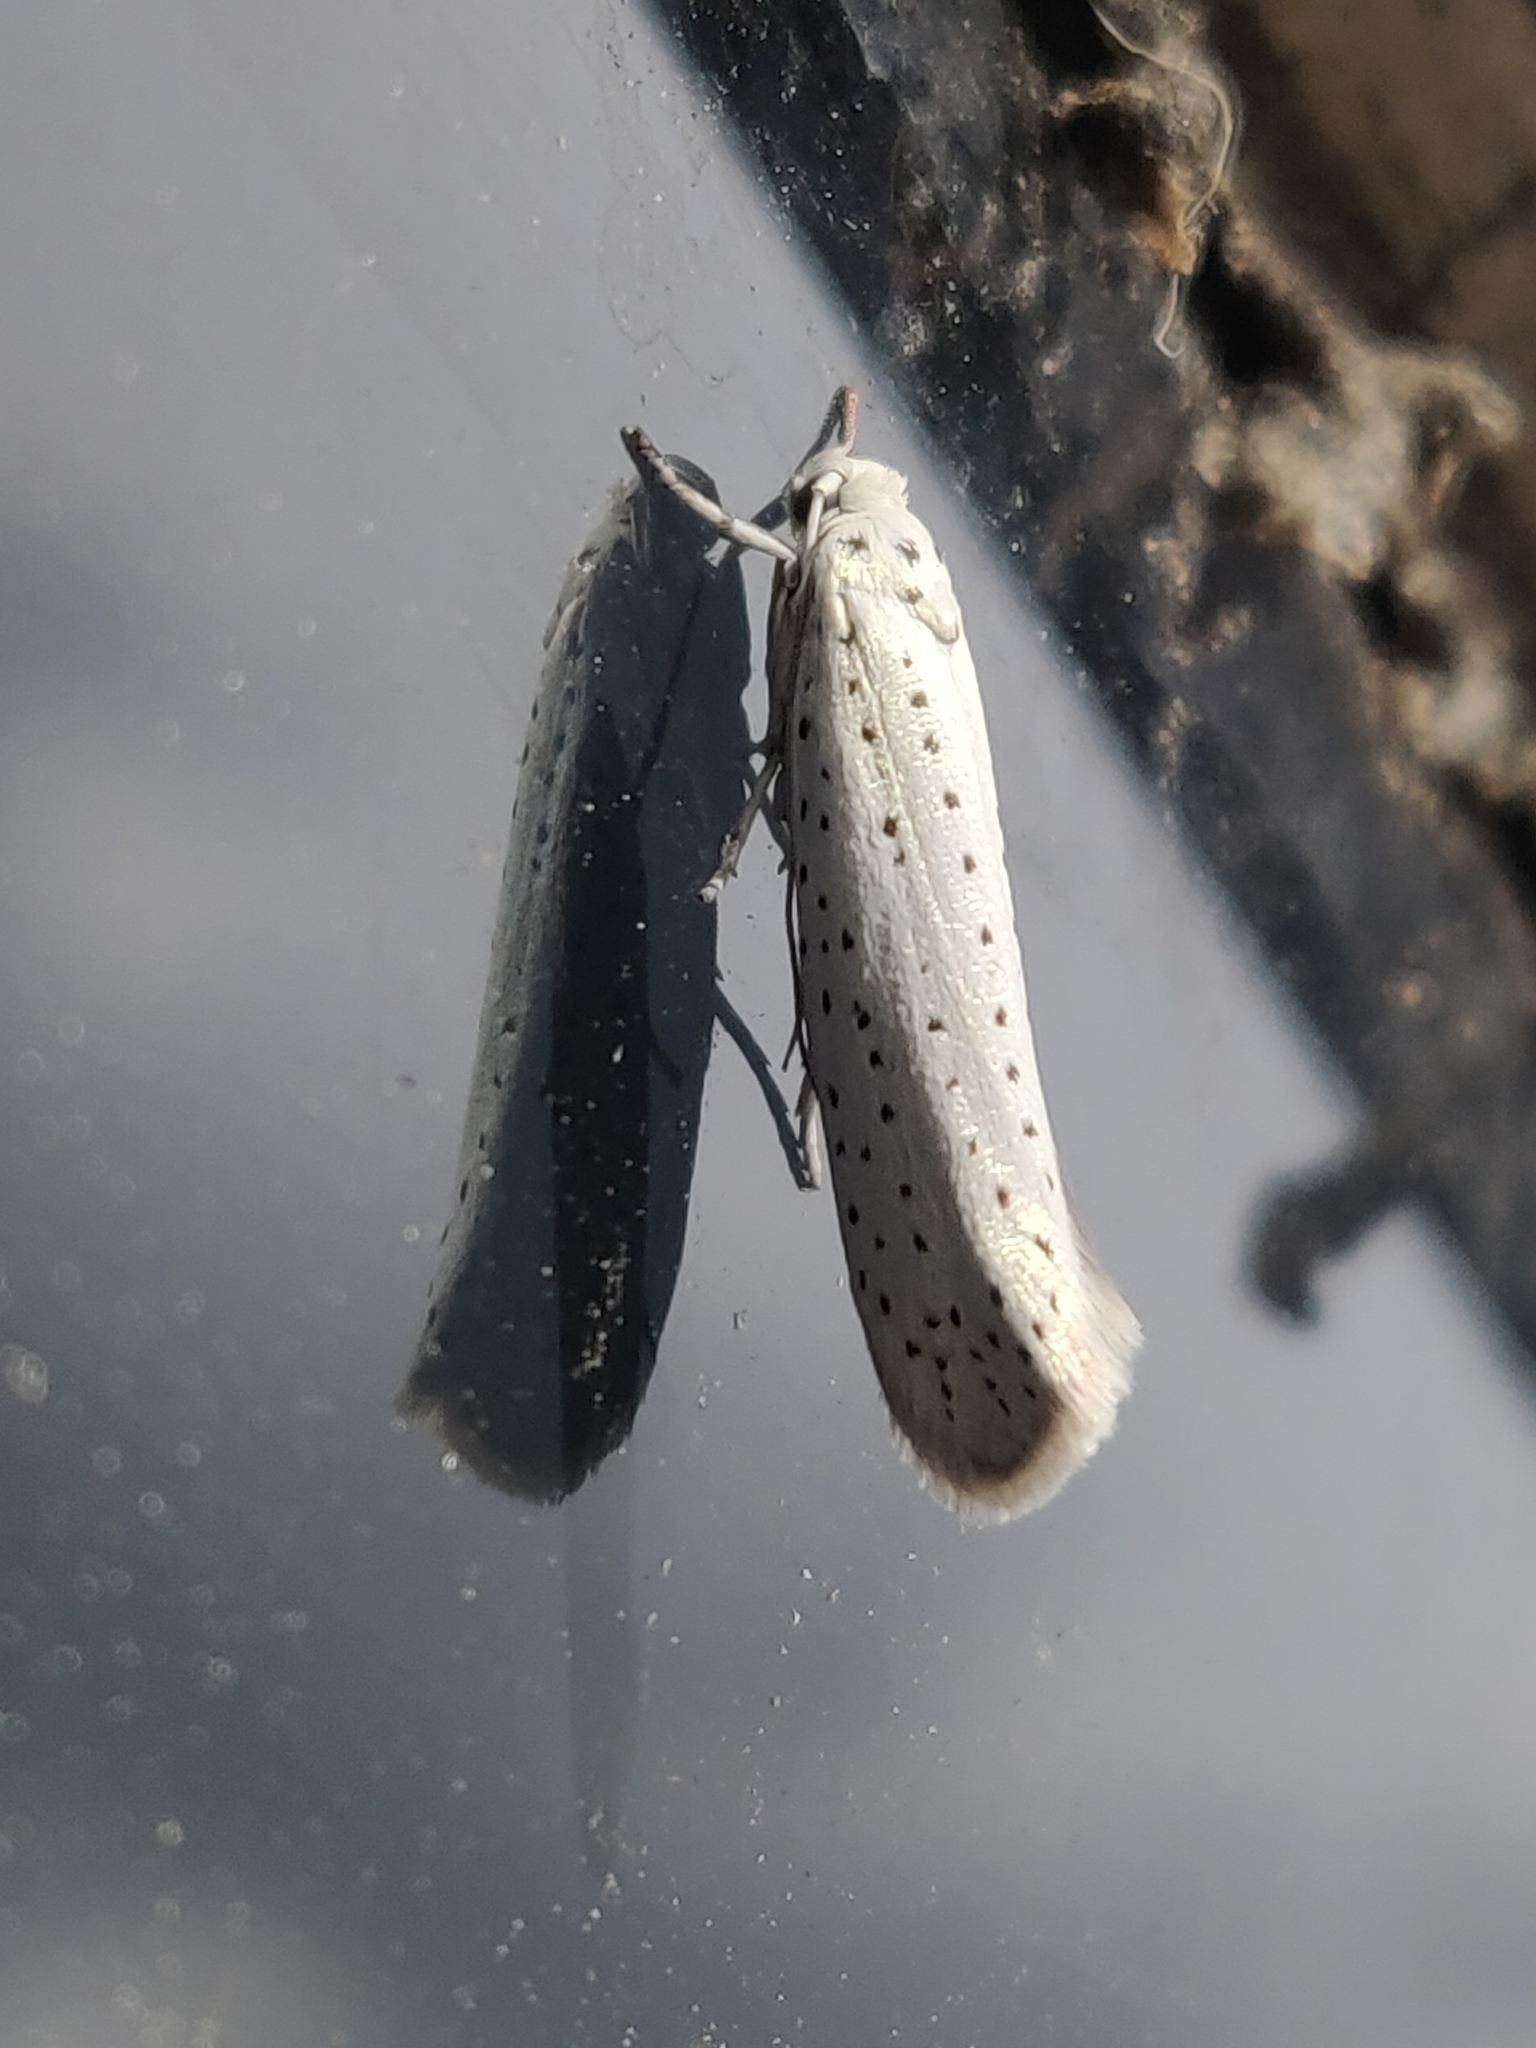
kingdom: Animalia
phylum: Arthropoda
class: Insecta
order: Lepidoptera
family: Yponomeutidae
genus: Yponomeuta
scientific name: Yponomeuta evonymella
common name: Bird-cherry ermine
